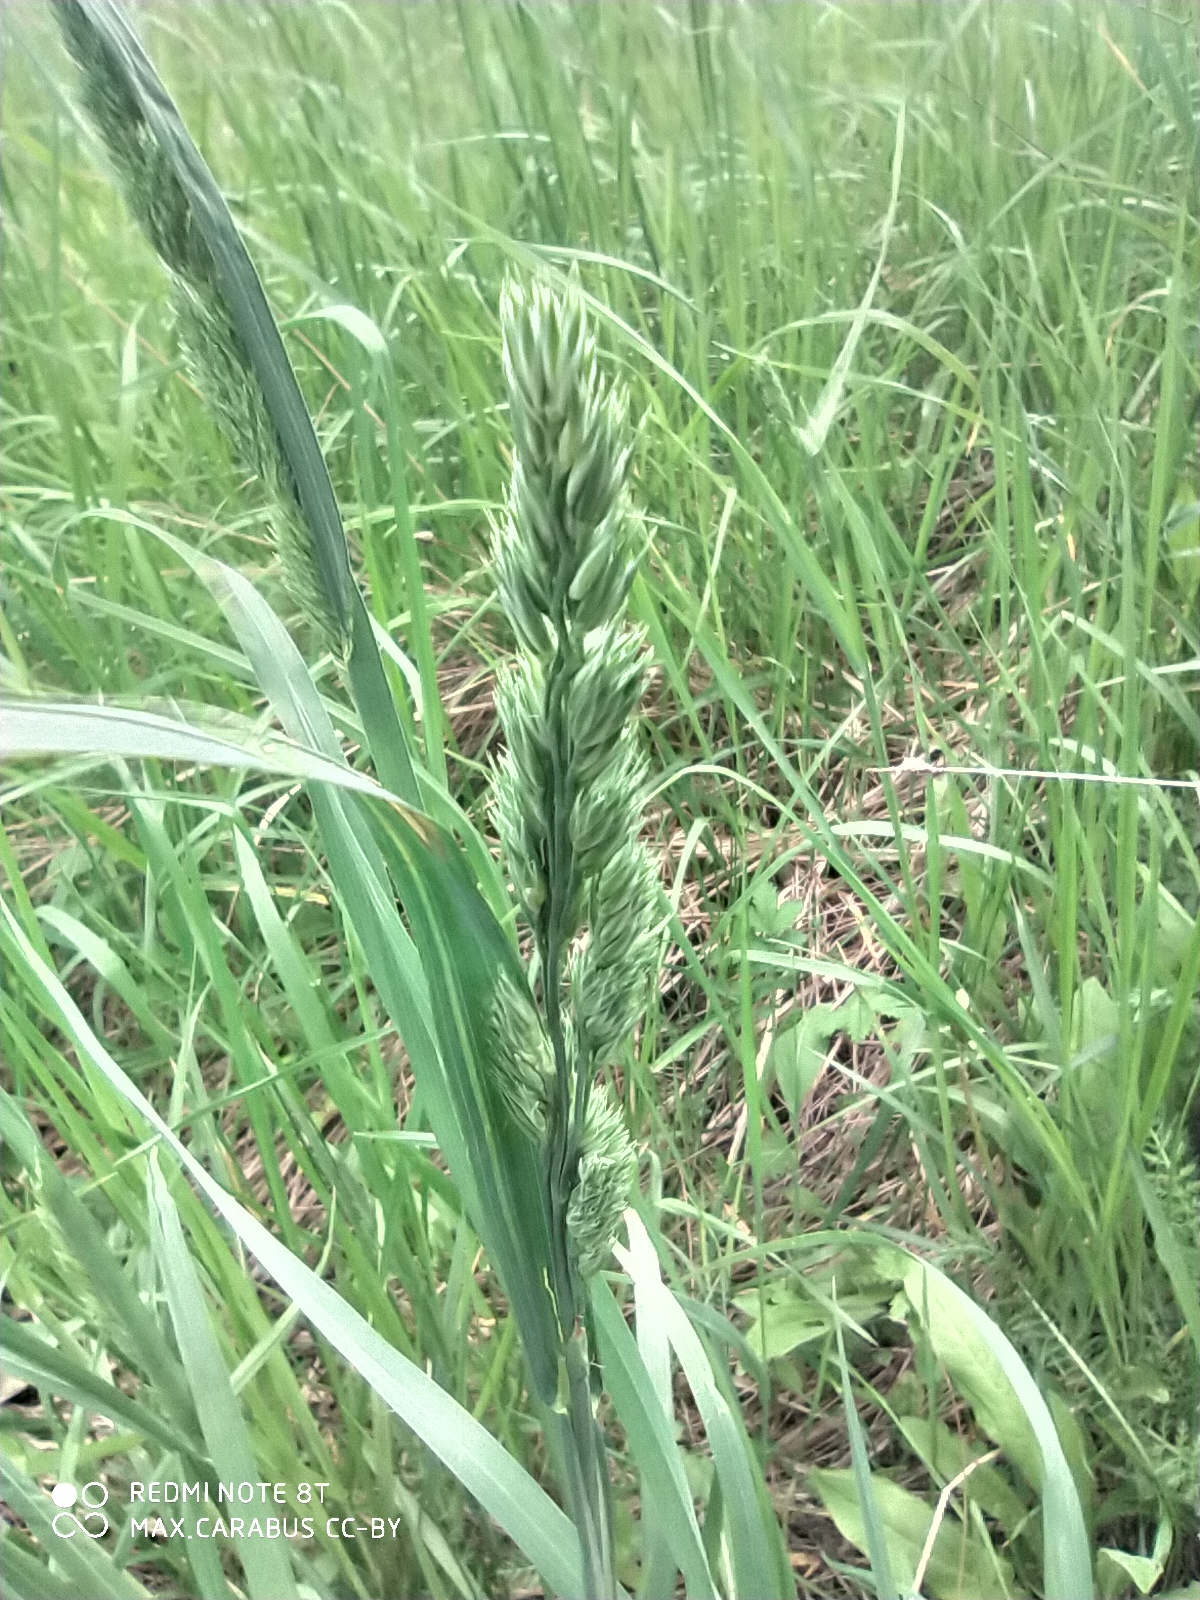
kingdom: Plantae
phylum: Tracheophyta
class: Liliopsida
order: Poales
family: Poaceae
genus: Dactylis
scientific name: Dactylis glomerata
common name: Orchardgrass
